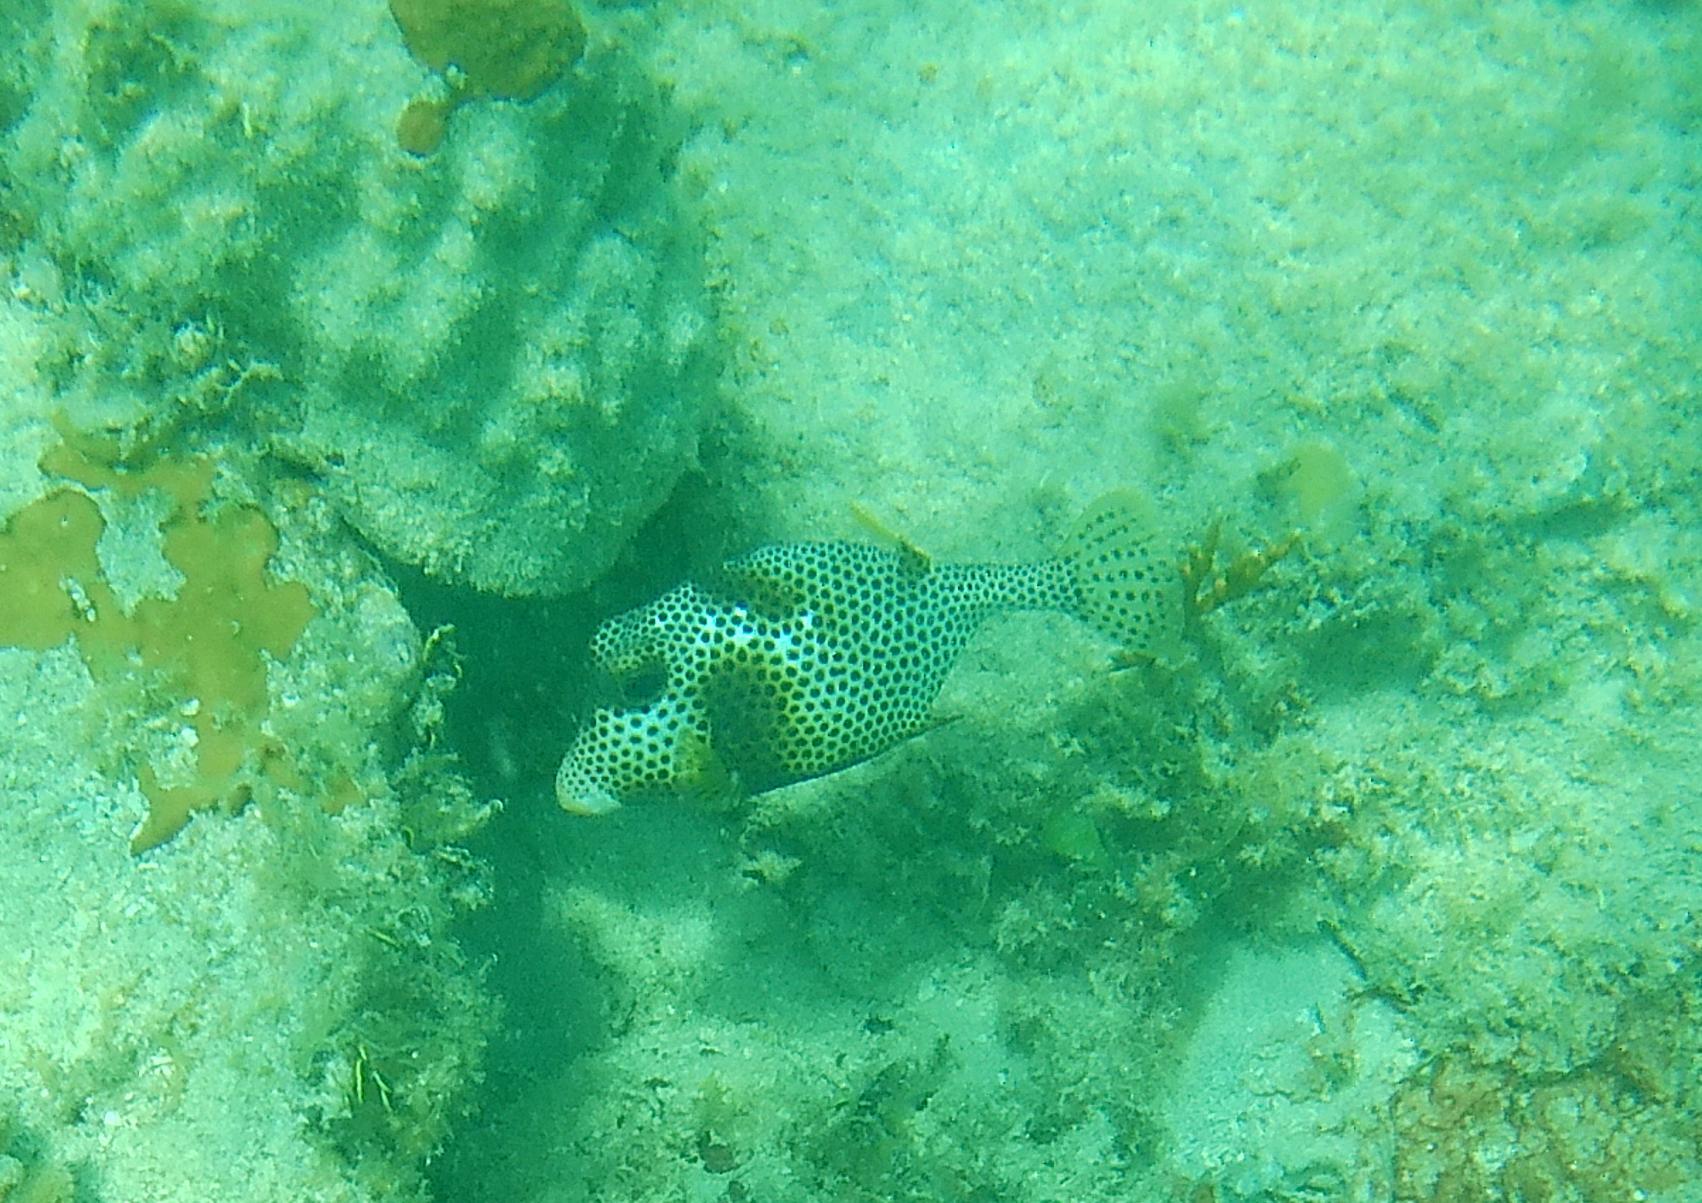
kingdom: Animalia
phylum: Chordata
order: Tetraodontiformes
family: Ostraciidae
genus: Lactophrys
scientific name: Lactophrys bicaudalis
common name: Spotted trunkfish
